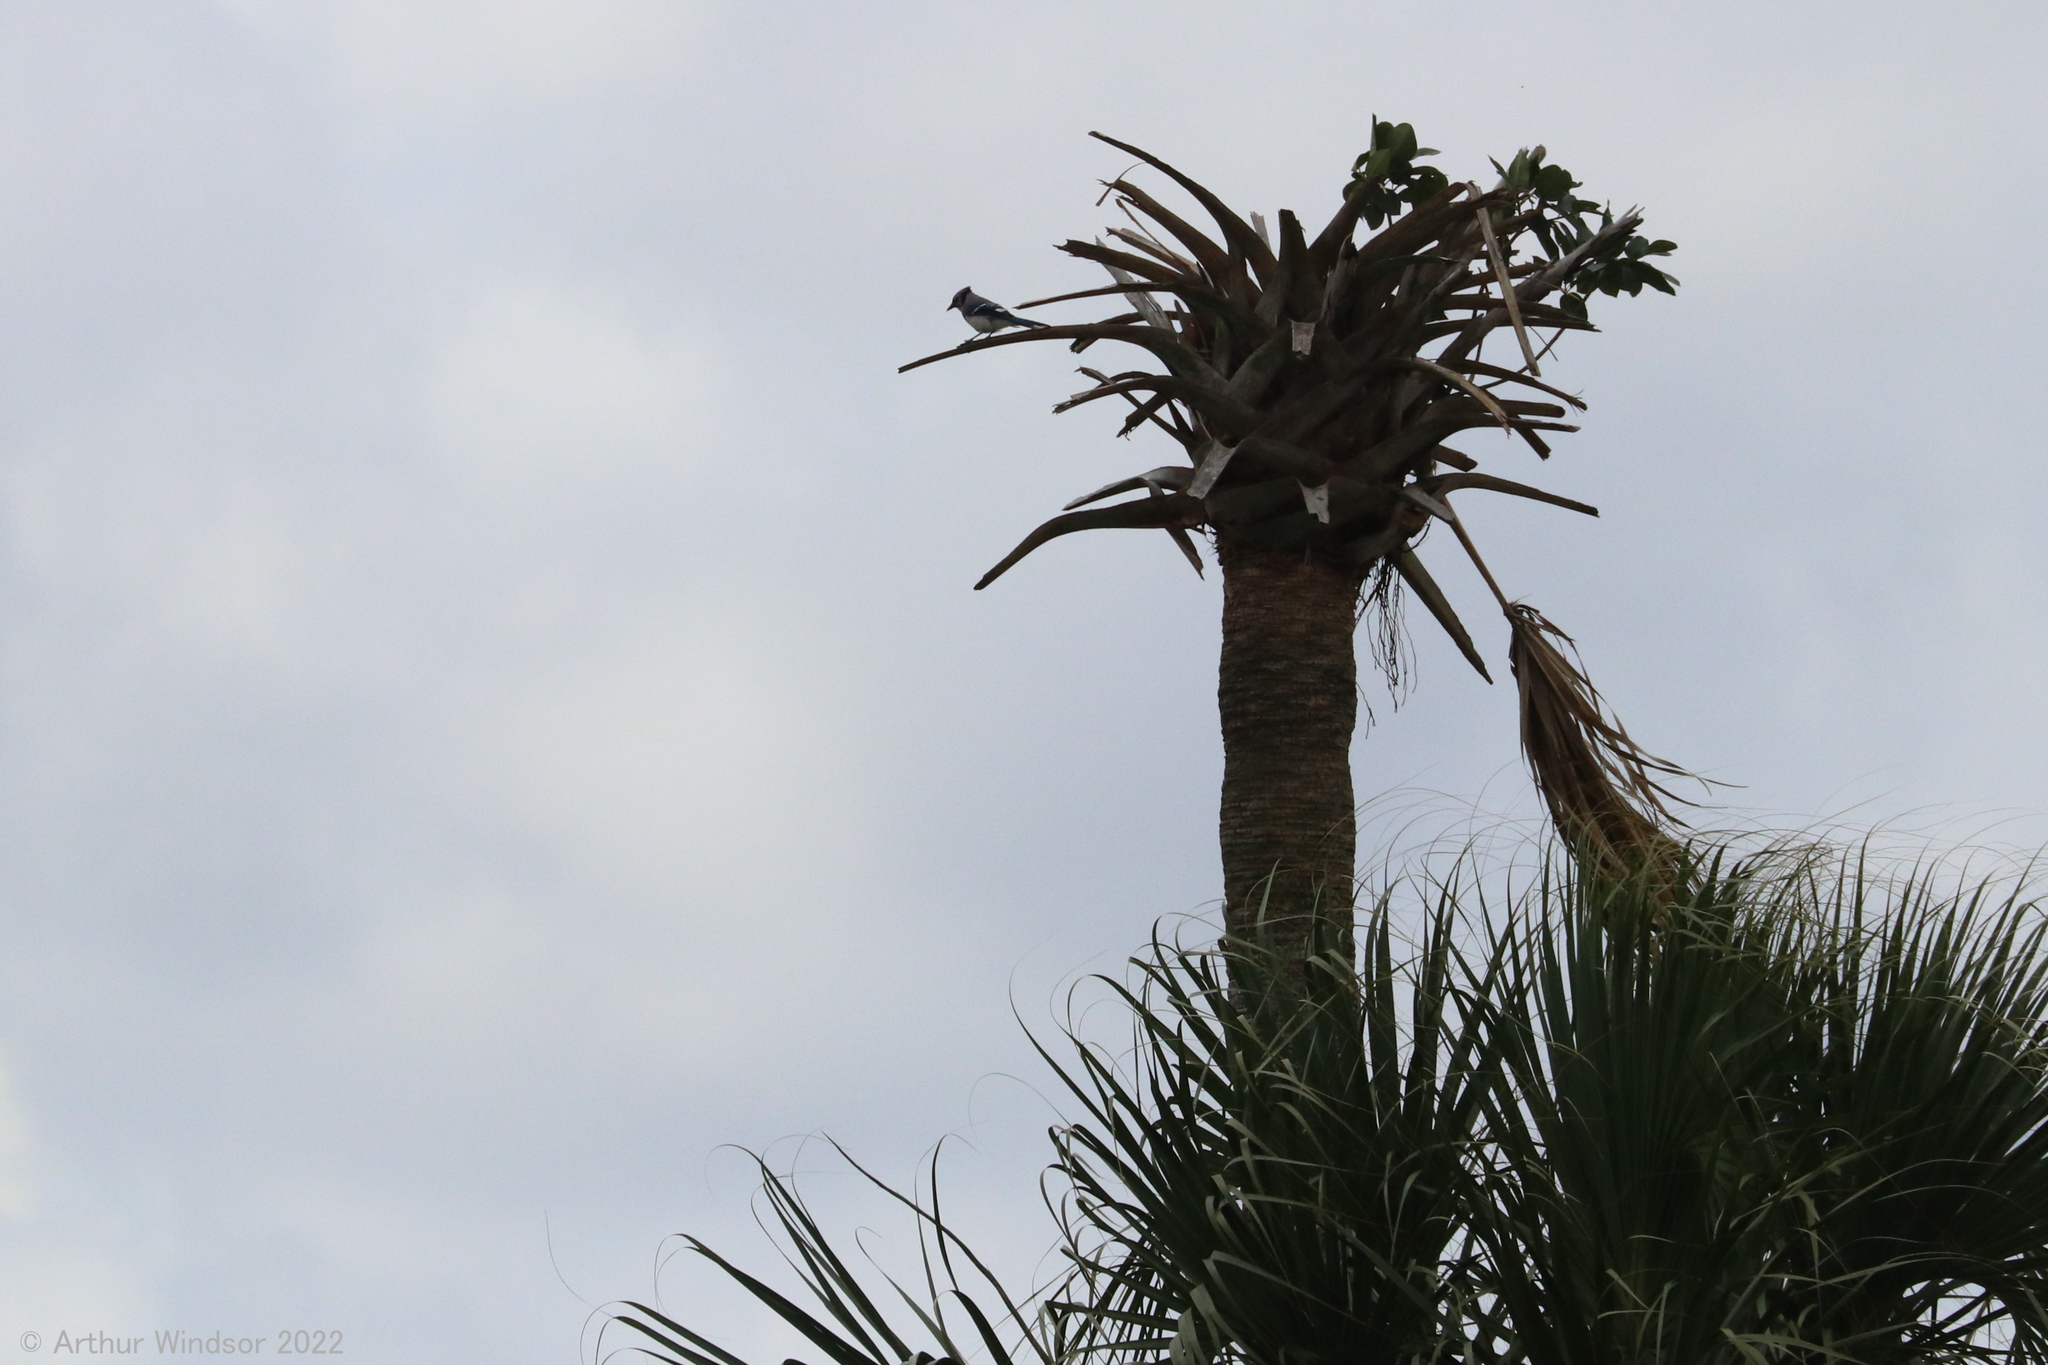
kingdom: Animalia
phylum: Chordata
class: Aves
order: Passeriformes
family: Corvidae
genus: Cyanocitta
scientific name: Cyanocitta cristata
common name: Blue jay
